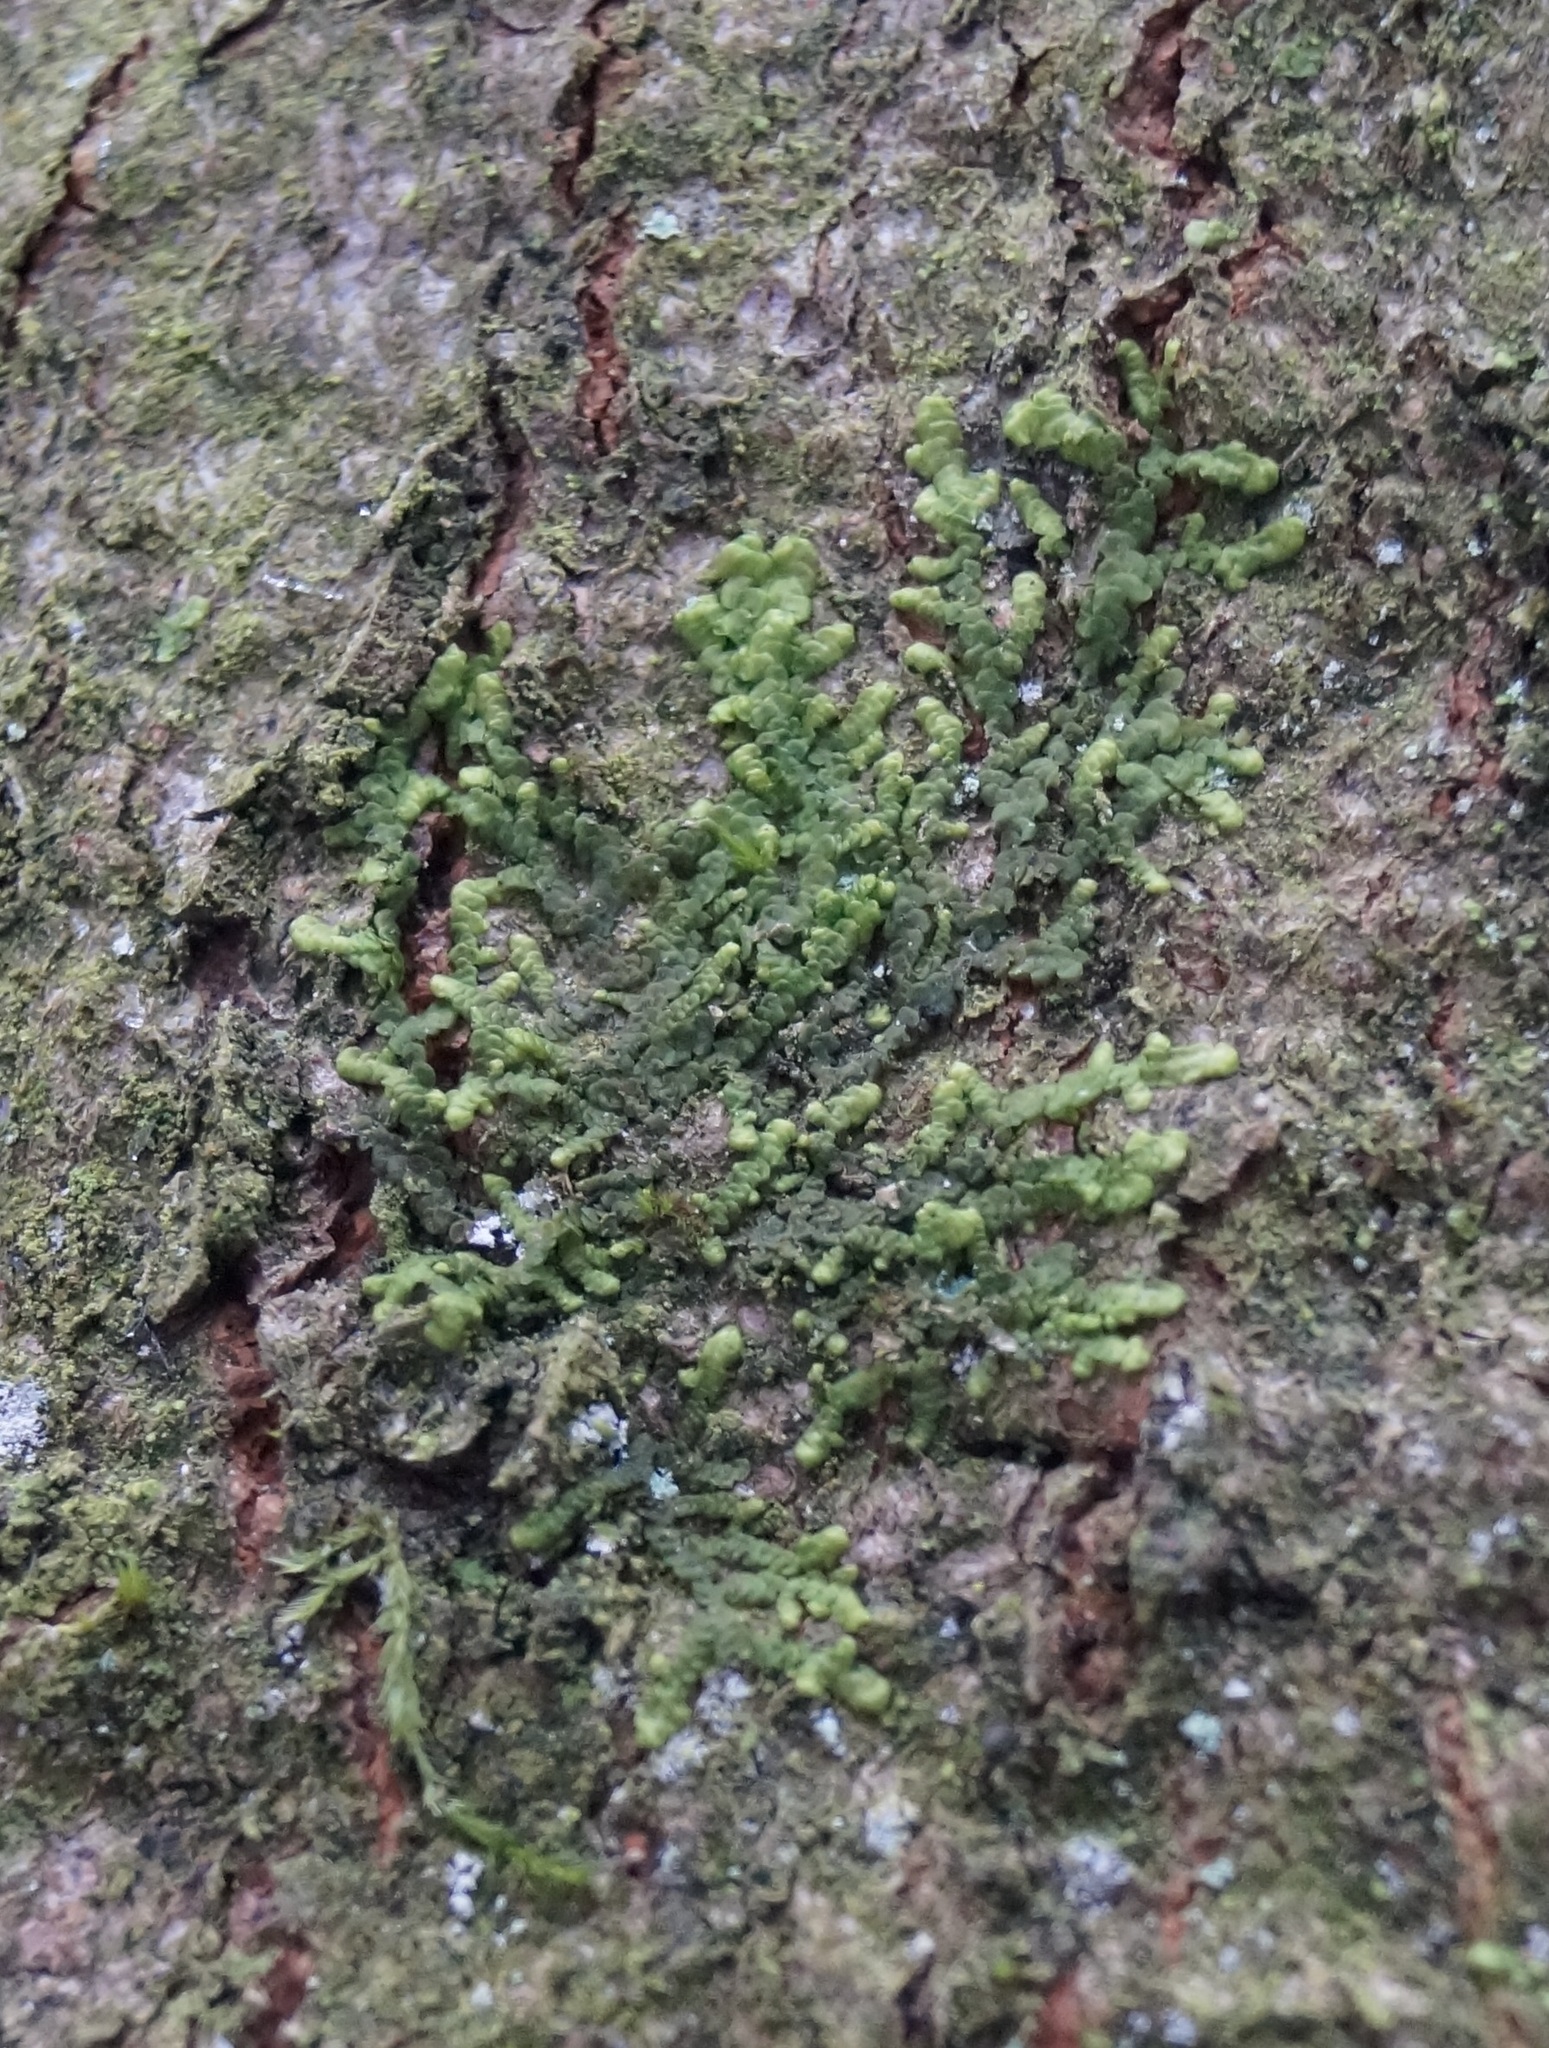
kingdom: Plantae
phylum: Marchantiophyta
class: Jungermanniopsida
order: Porellales
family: Radulaceae
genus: Radula
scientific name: Radula complanata
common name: Flat-leaved scalewort
